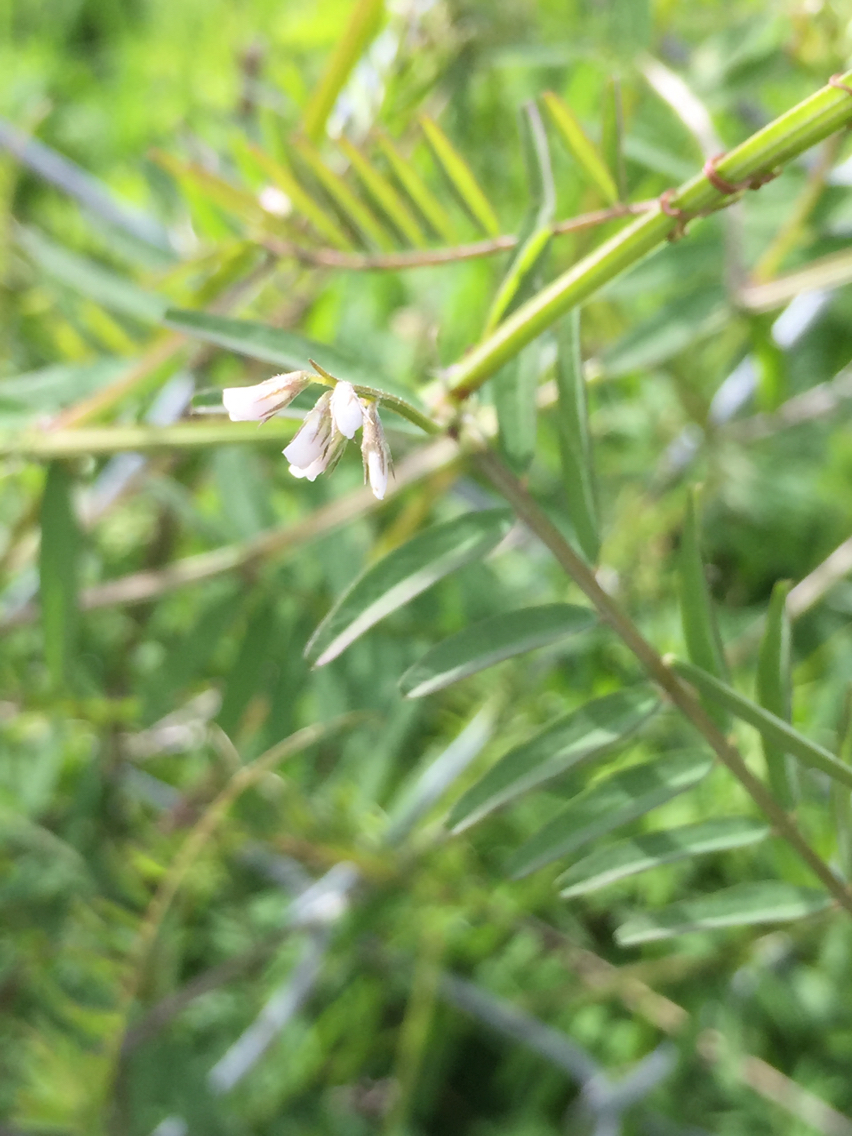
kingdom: Plantae
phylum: Tracheophyta
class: Magnoliopsida
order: Fabales
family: Fabaceae
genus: Vicia
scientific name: Vicia hirsuta
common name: Tiny vetch
